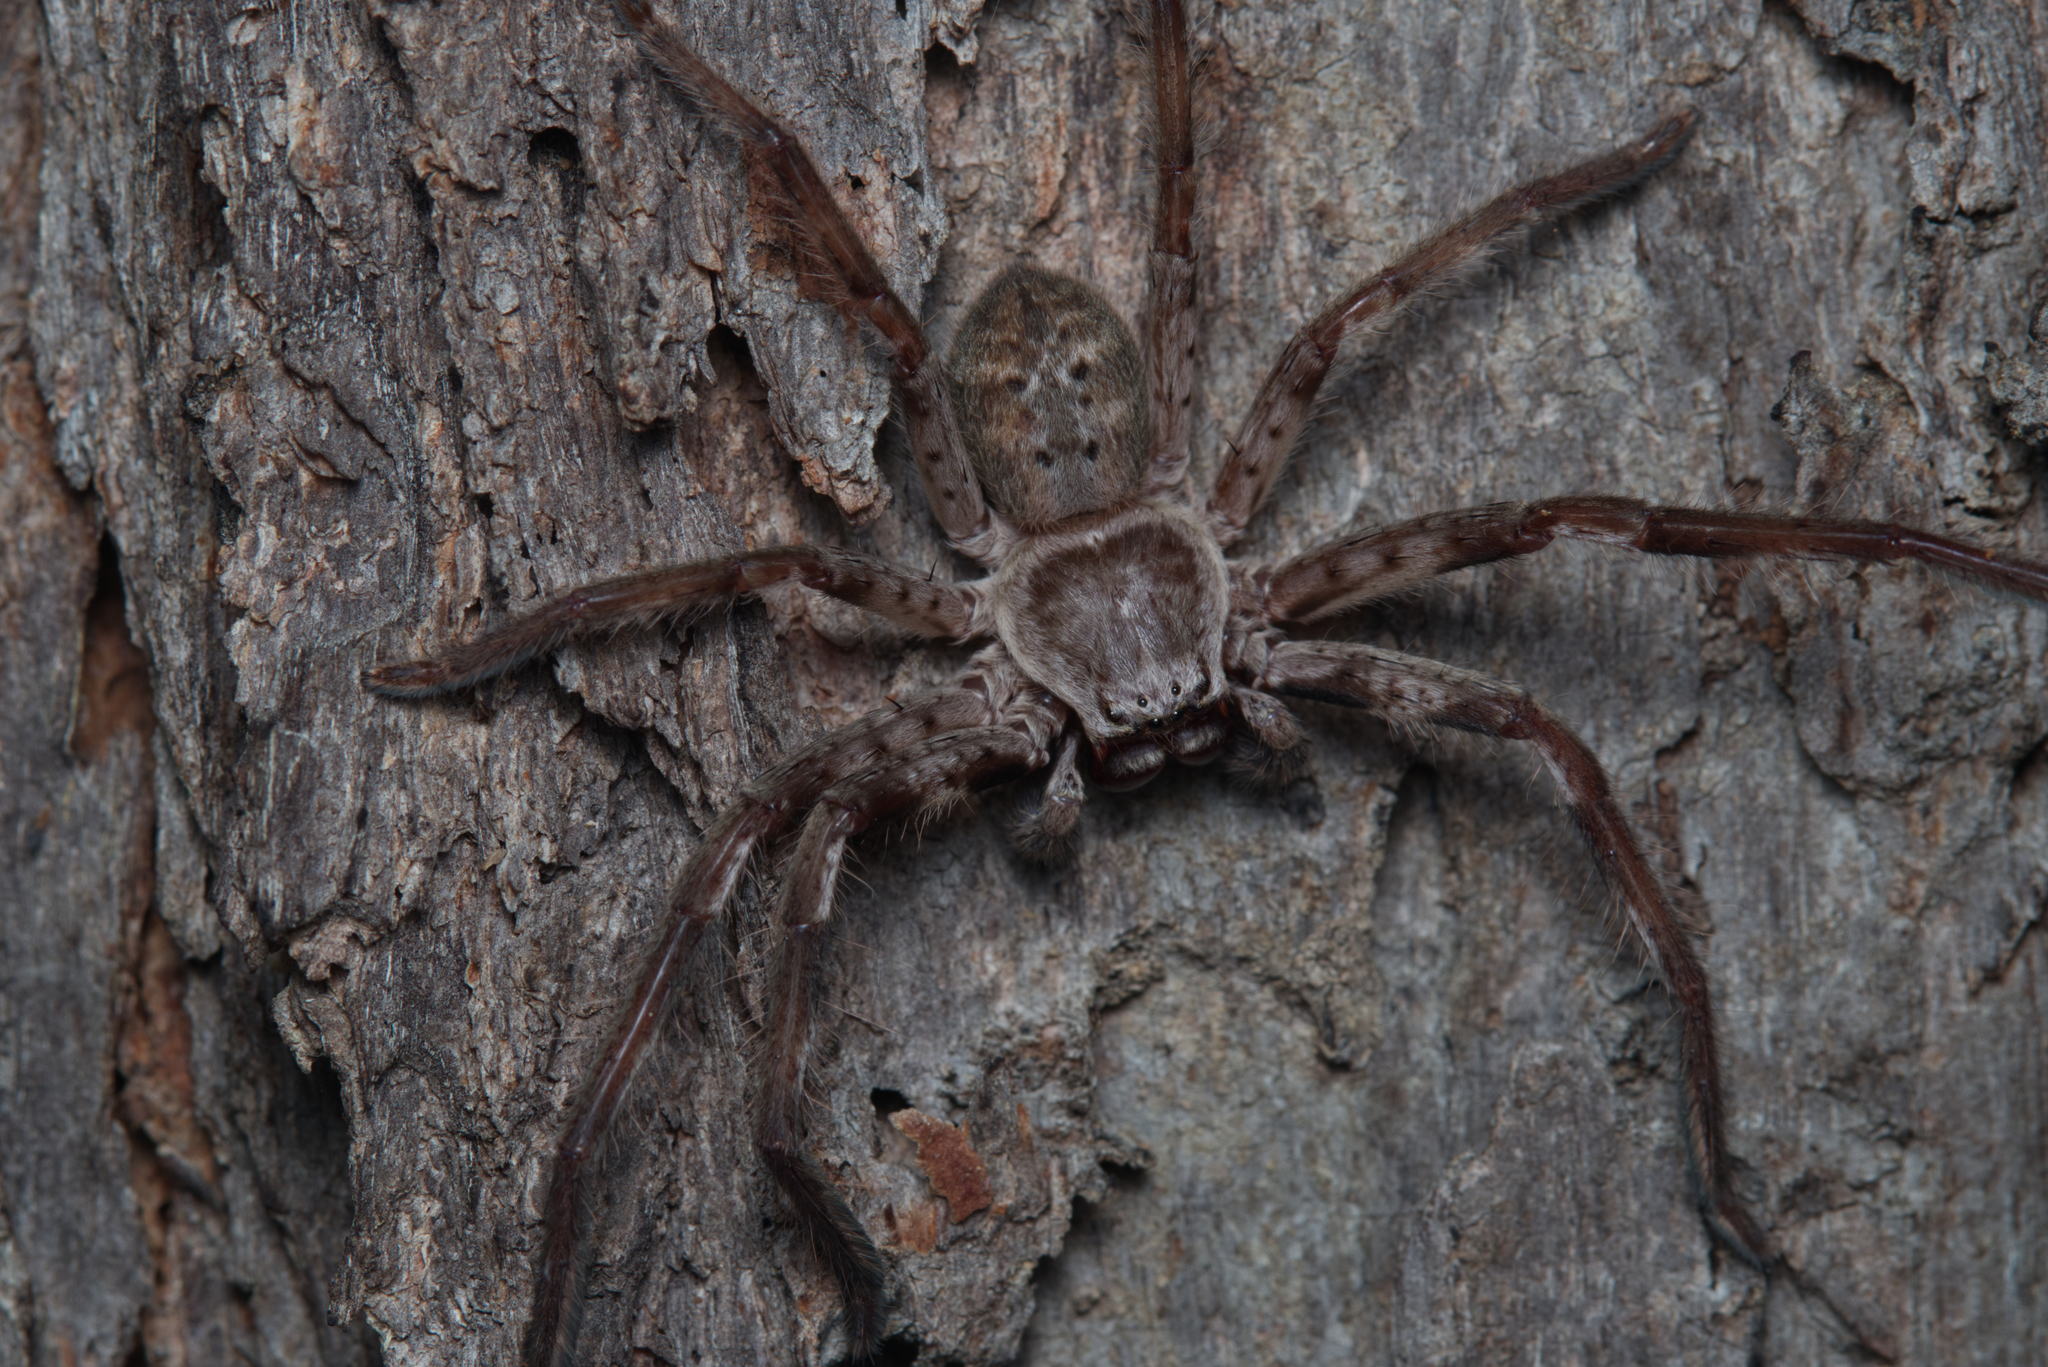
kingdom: Animalia
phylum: Arthropoda
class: Arachnida
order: Araneae
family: Sparassidae
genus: Isopeda
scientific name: Isopeda vasta
